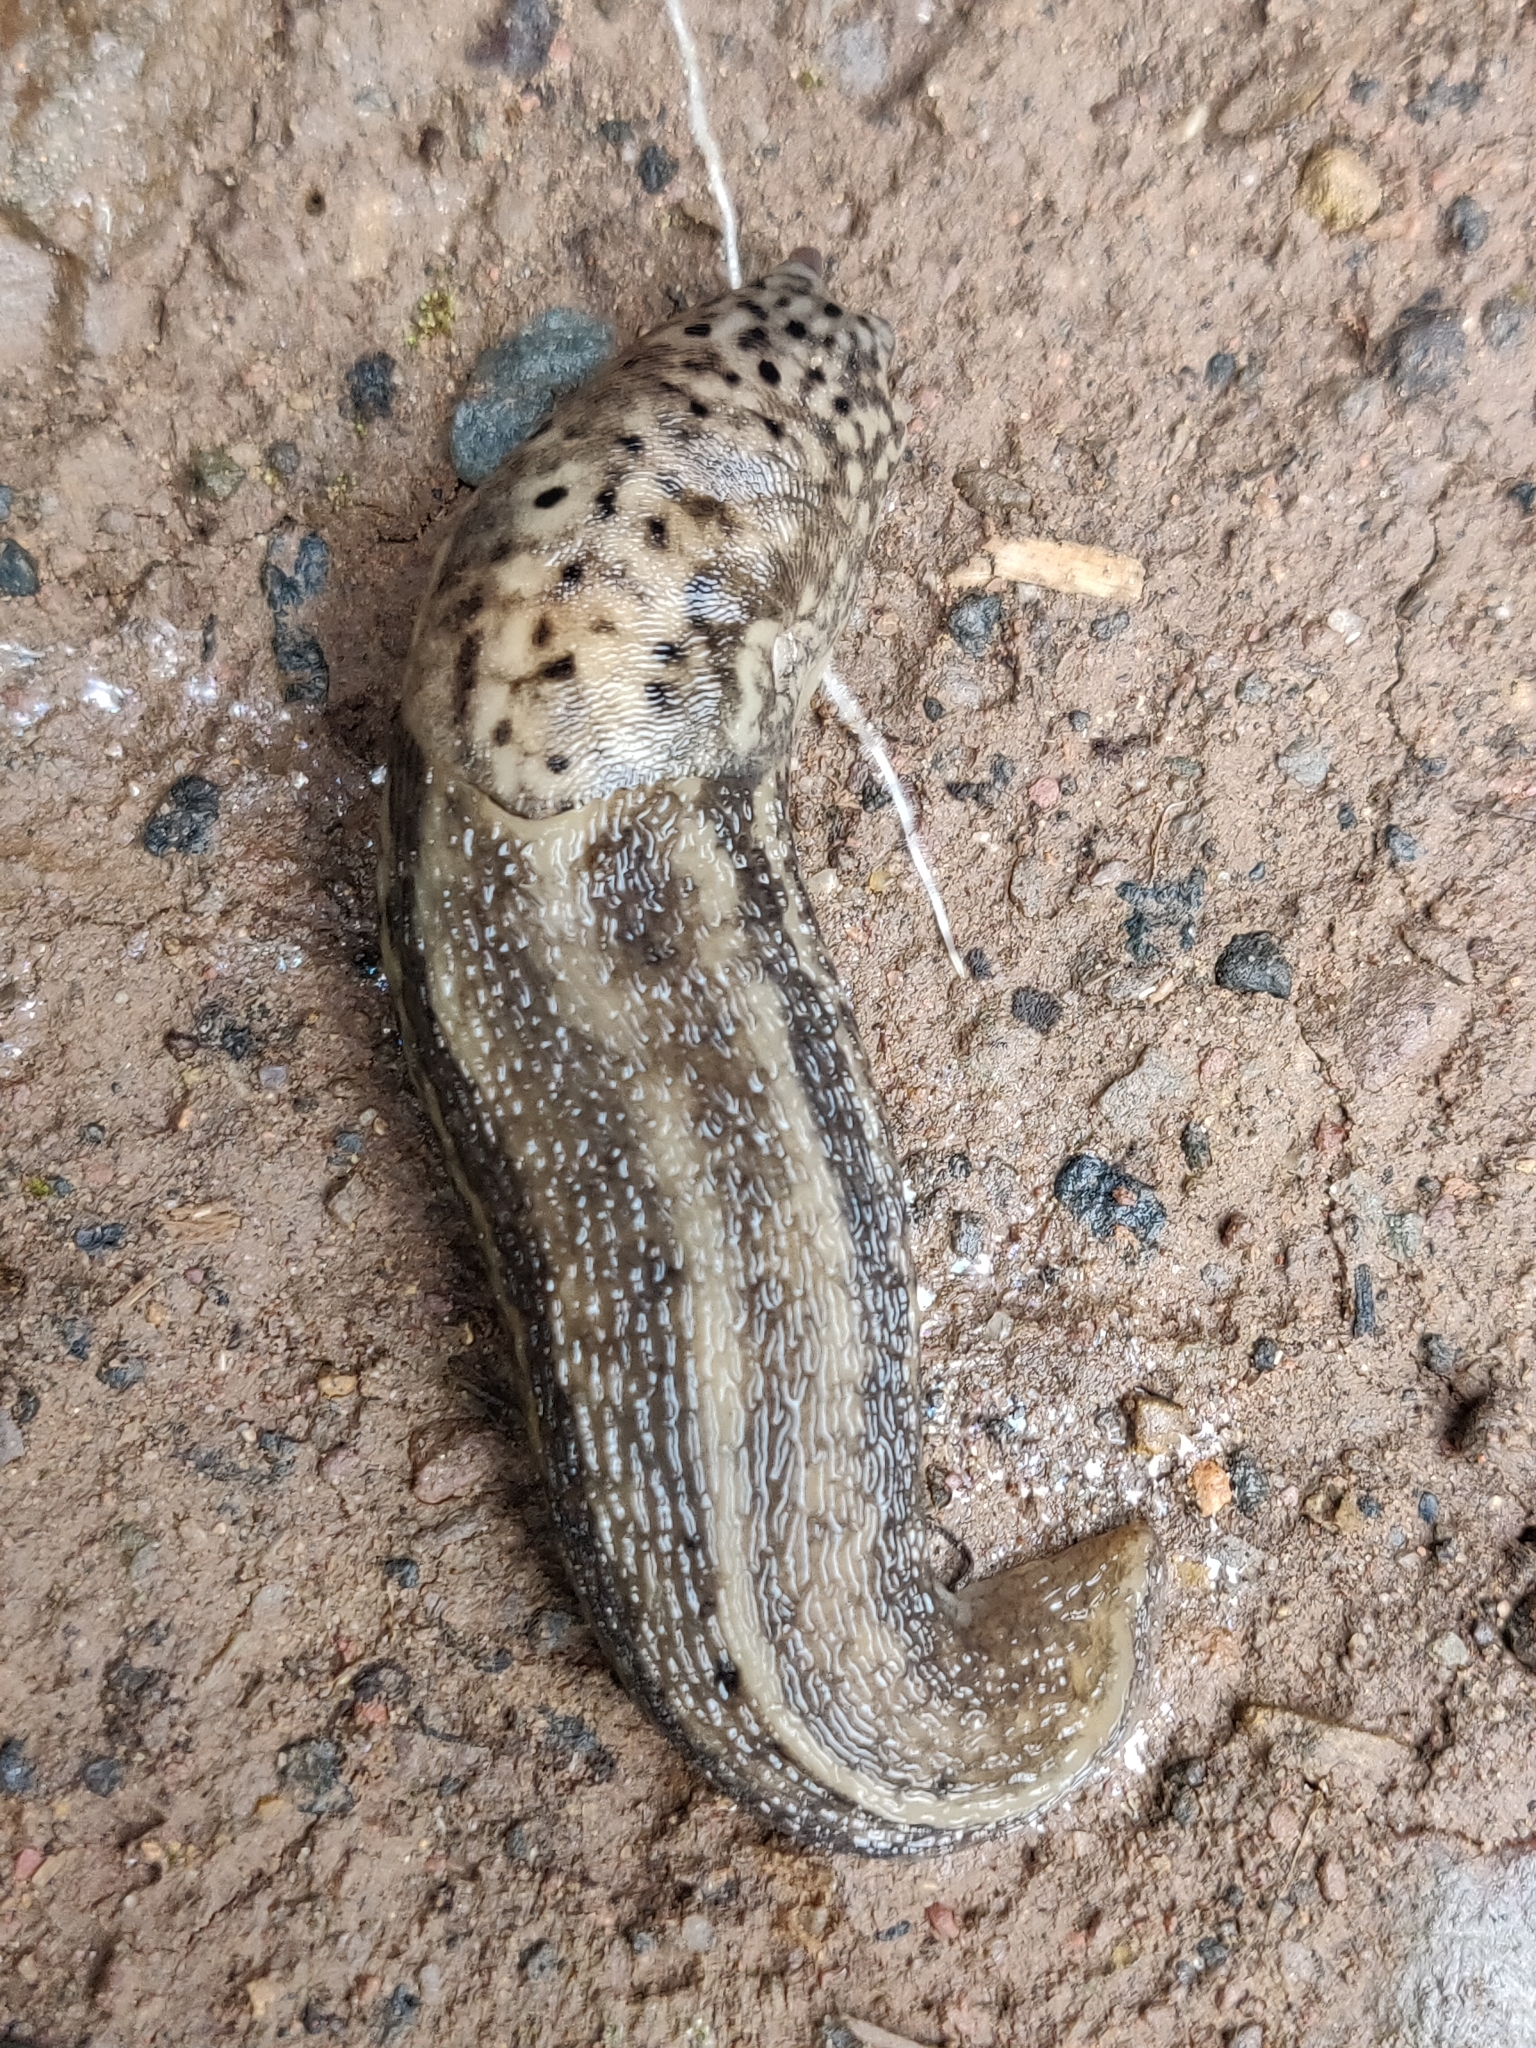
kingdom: Animalia
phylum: Mollusca
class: Gastropoda
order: Stylommatophora
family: Limacidae
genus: Limax
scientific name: Limax maximus
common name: Great grey slug
